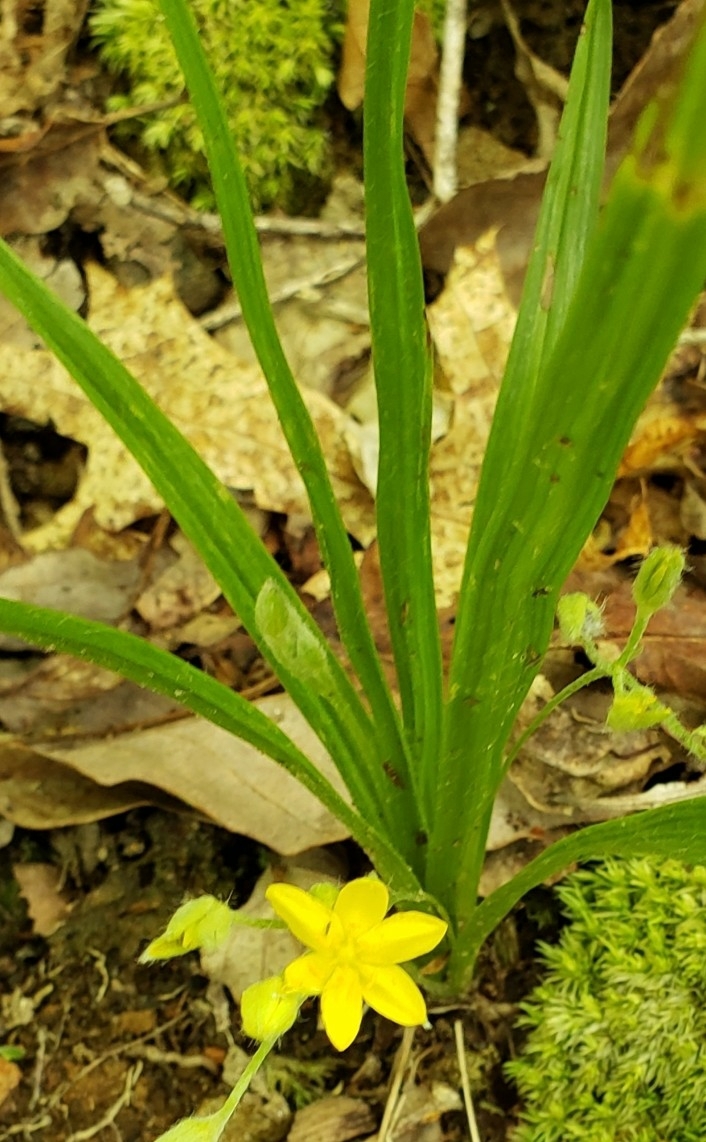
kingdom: Plantae
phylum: Tracheophyta
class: Liliopsida
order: Asparagales
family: Hypoxidaceae
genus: Hypoxis
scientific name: Hypoxis hirsuta
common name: Common goldstar
